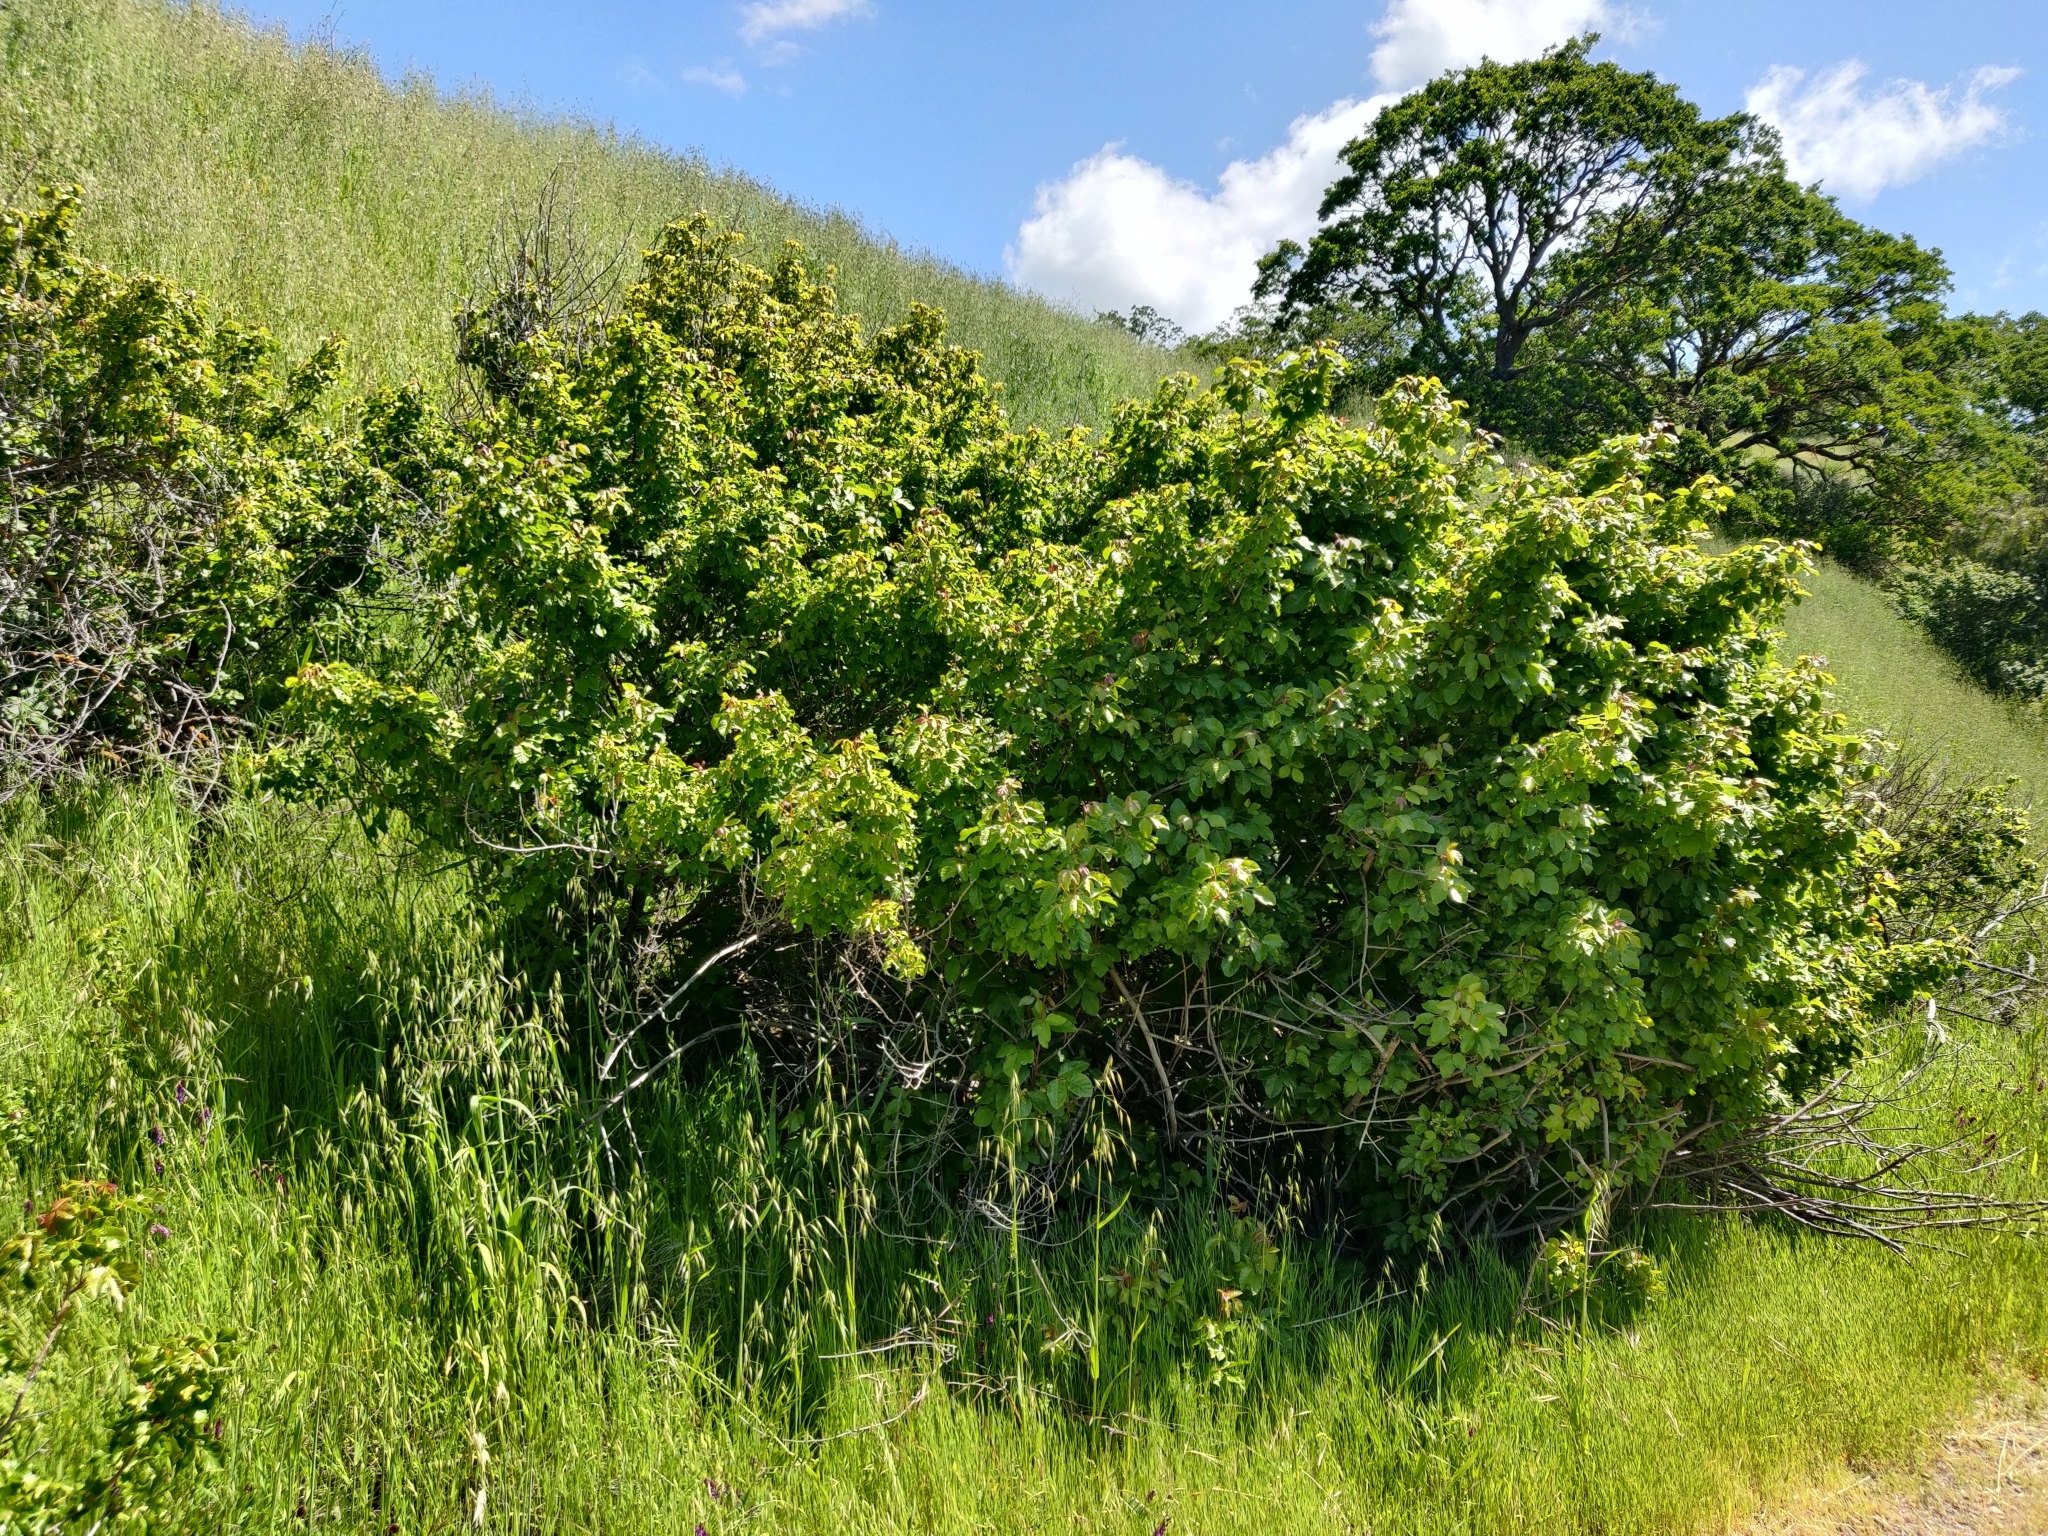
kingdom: Plantae
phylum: Tracheophyta
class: Magnoliopsida
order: Sapindales
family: Anacardiaceae
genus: Toxicodendron
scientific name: Toxicodendron diversilobum
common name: Pacific poison-oak
